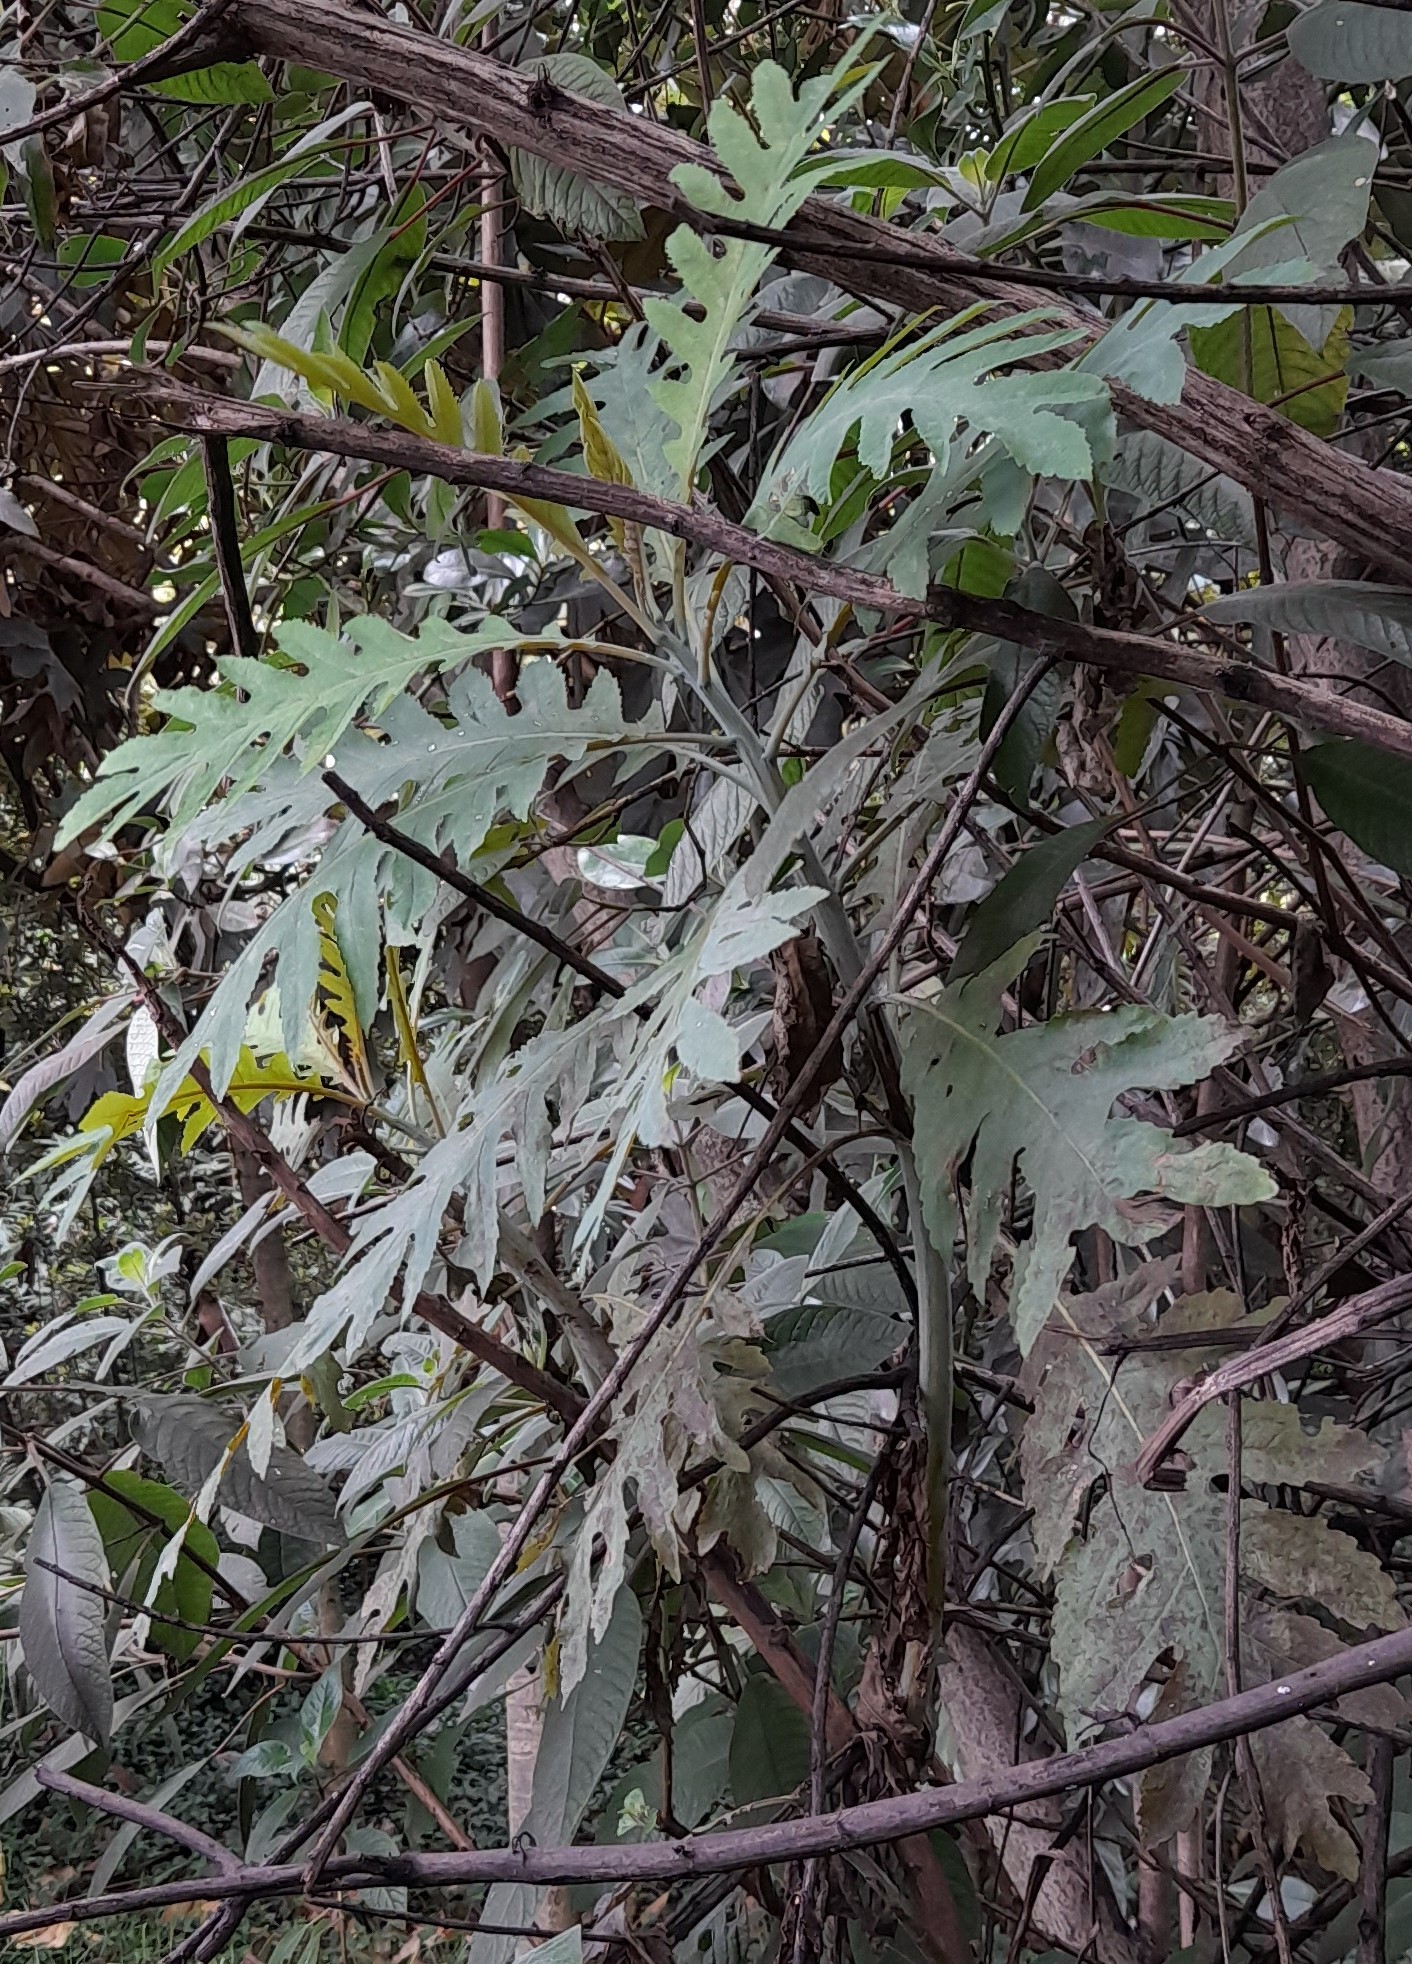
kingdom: Plantae
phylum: Tracheophyta
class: Magnoliopsida
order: Ranunculales
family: Papaveraceae
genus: Bocconia
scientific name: Bocconia frutescens
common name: Tree poppy
